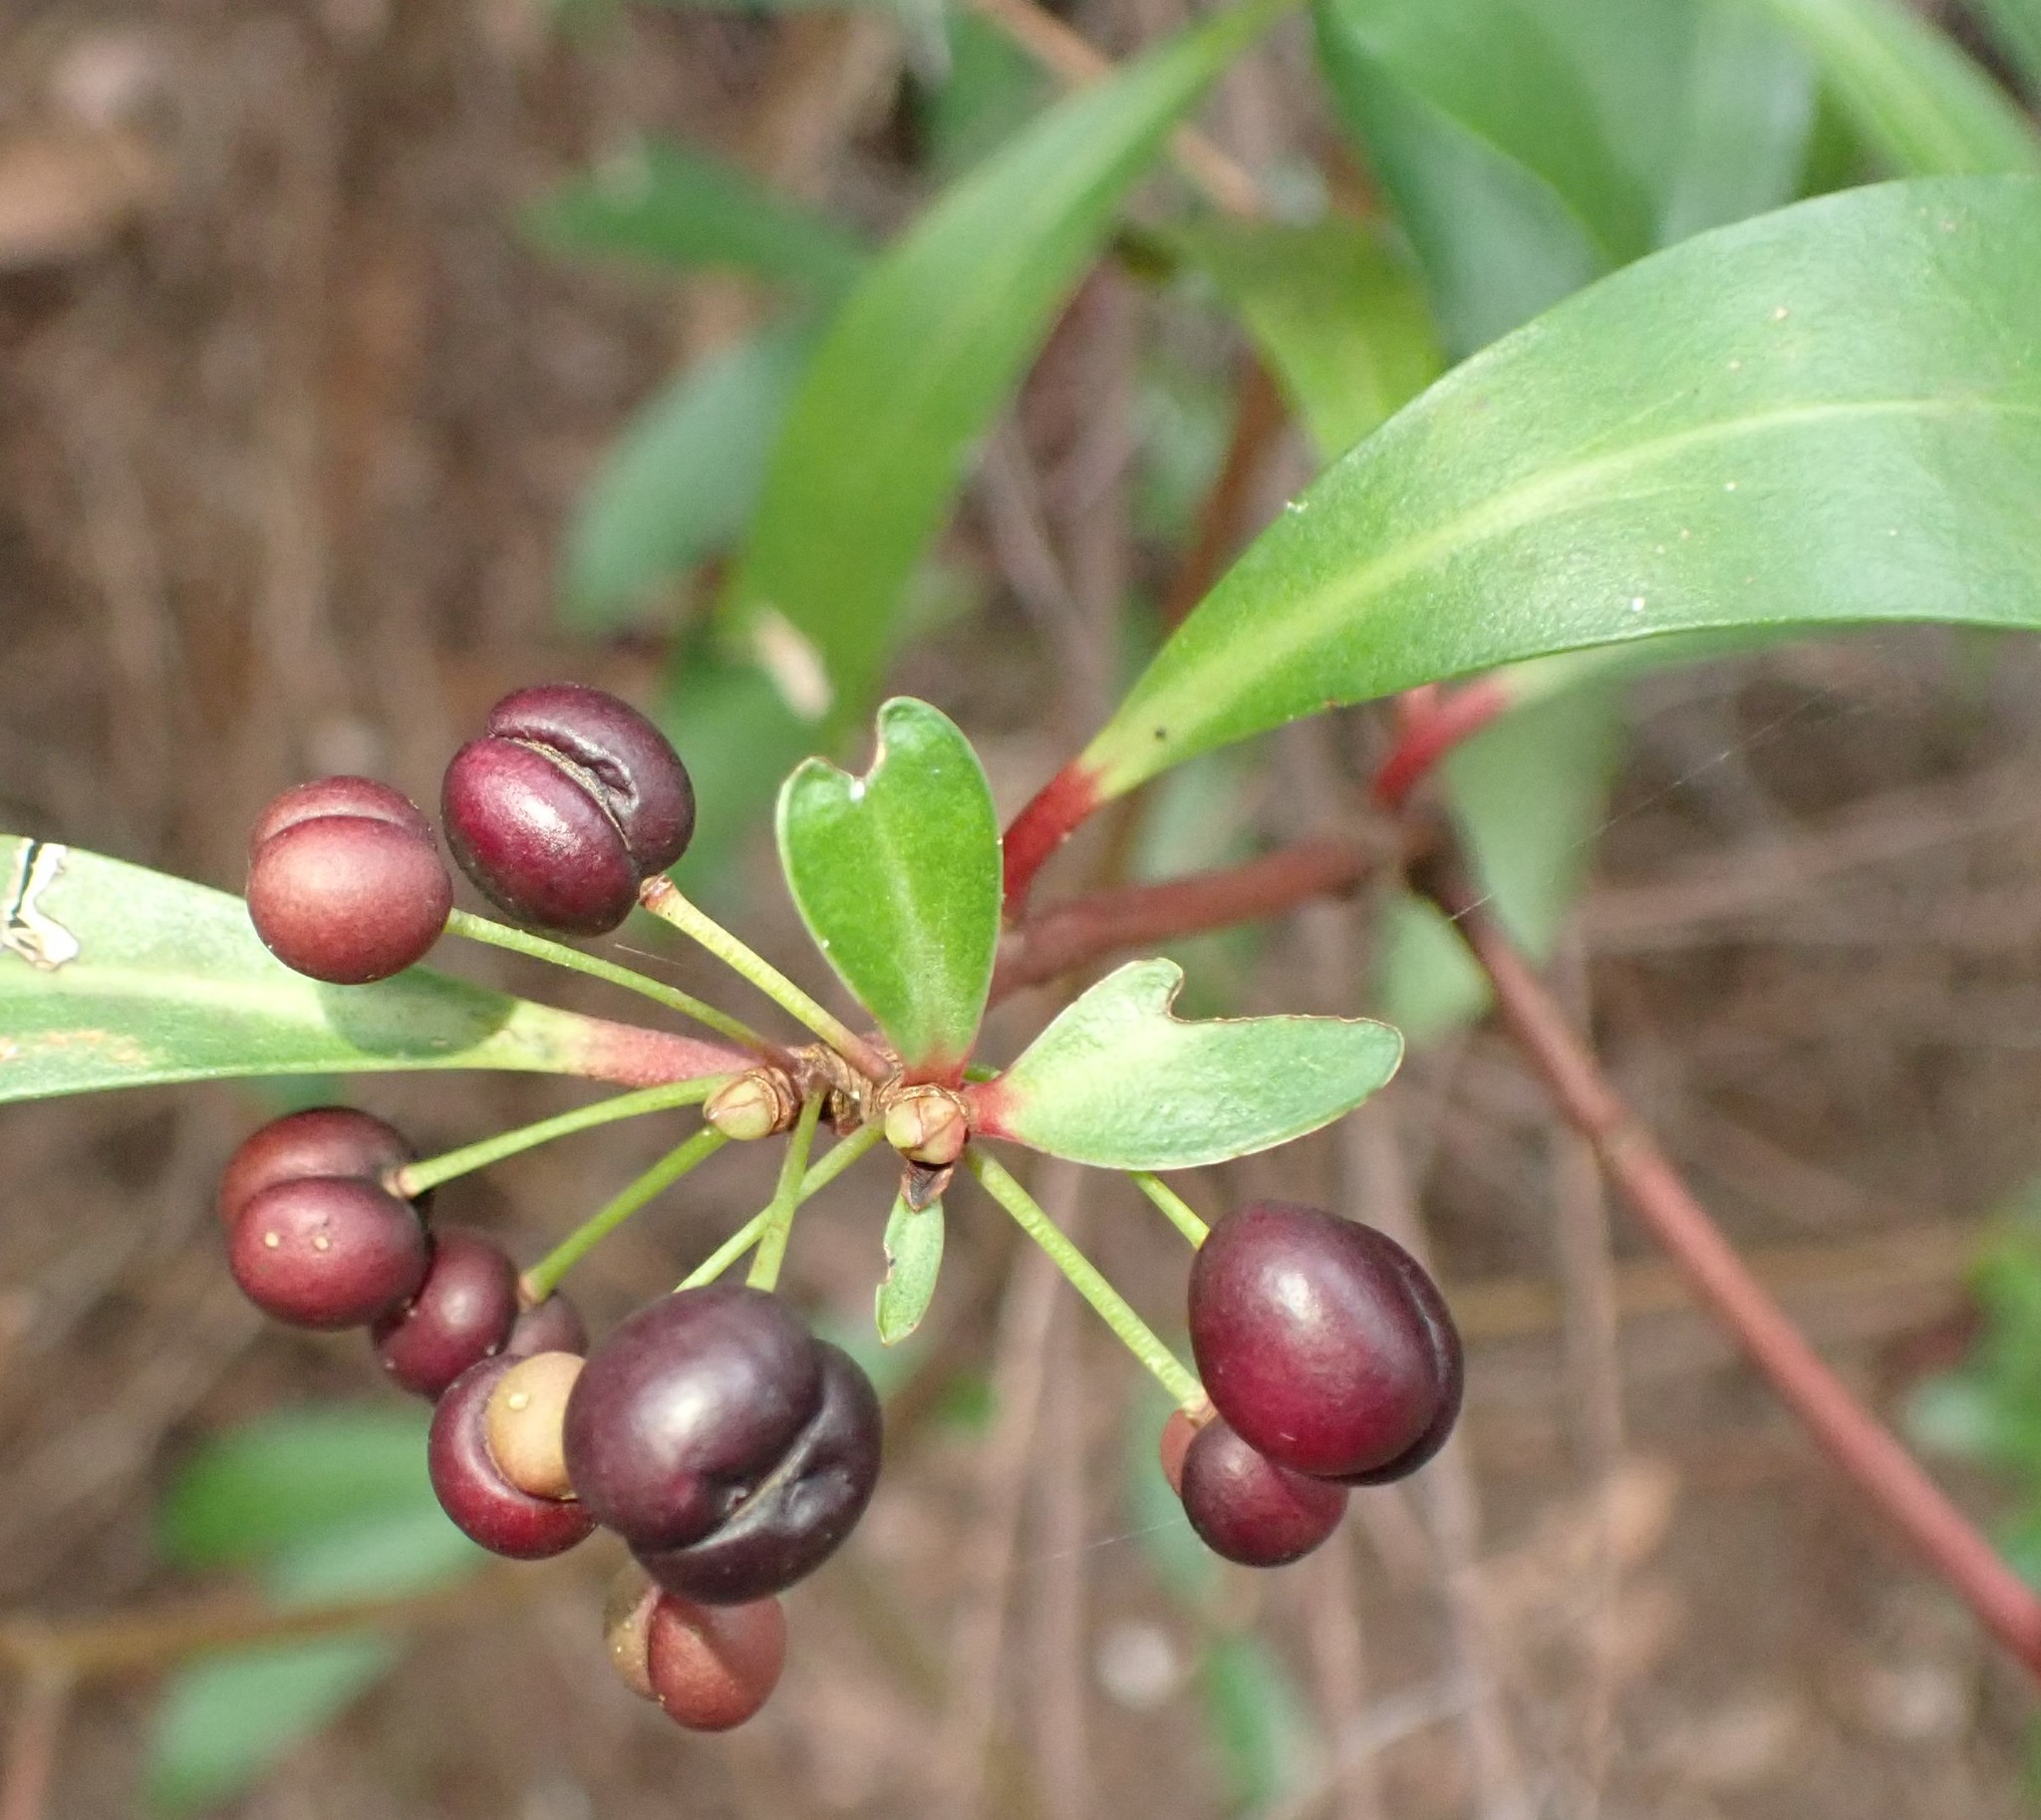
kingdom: Plantae
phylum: Tracheophyta
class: Magnoliopsida
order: Canellales
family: Winteraceae
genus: Drimys
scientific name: Drimys aromatica
